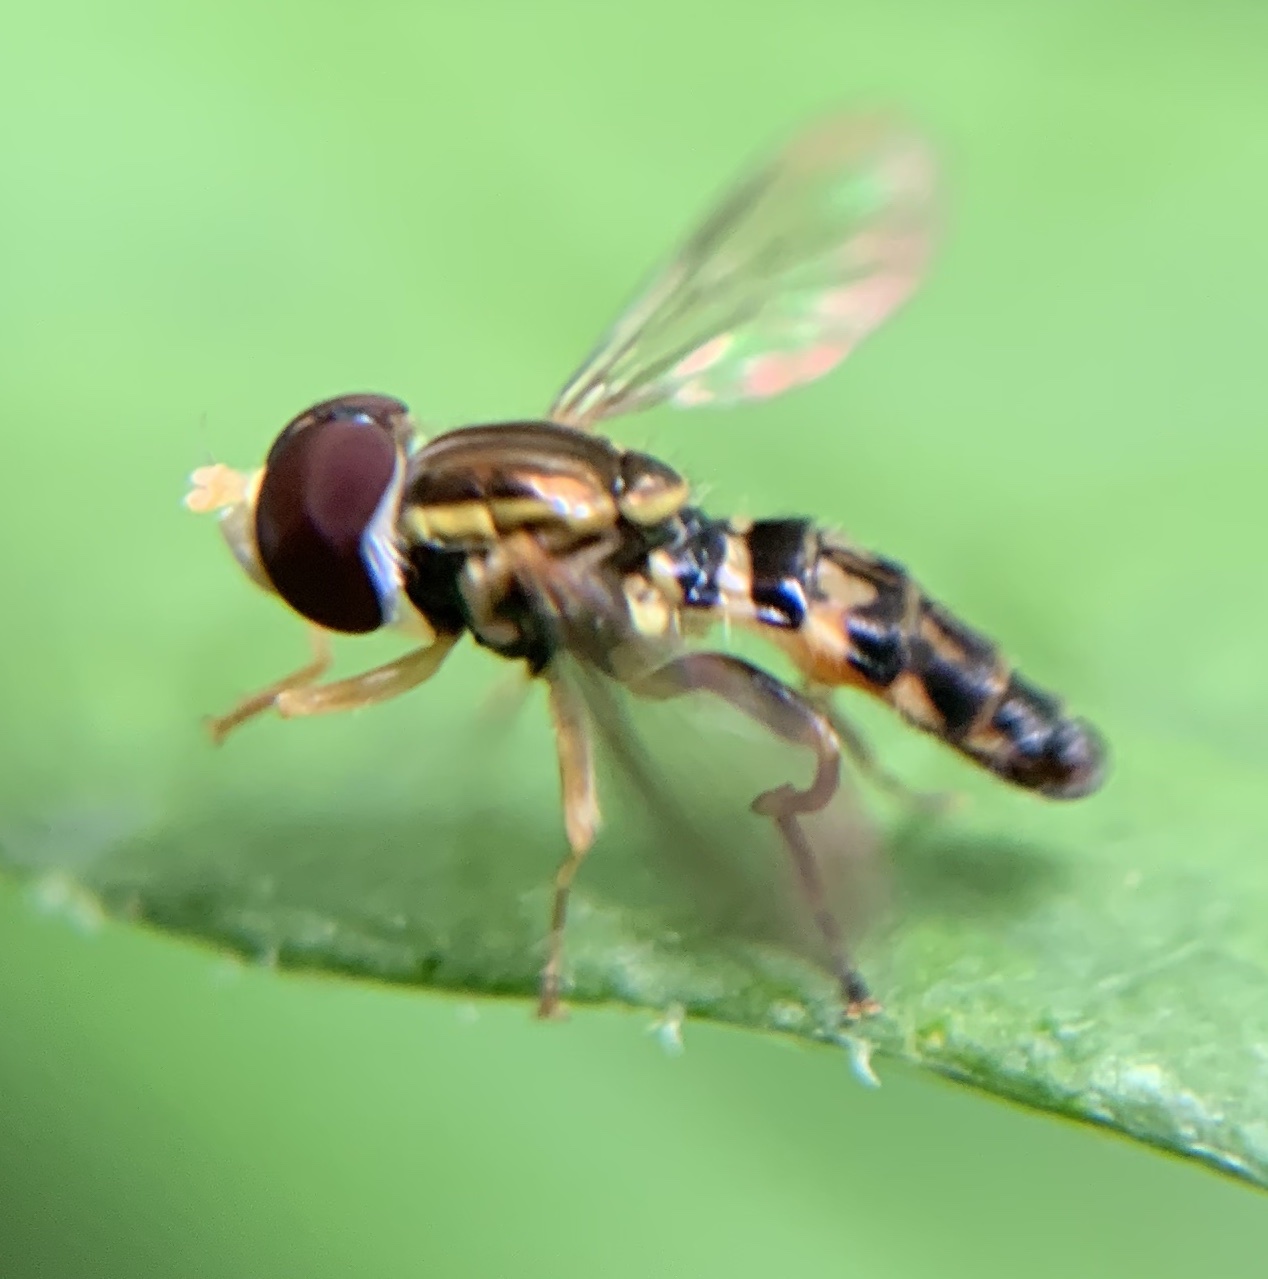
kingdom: Animalia
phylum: Arthropoda
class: Insecta
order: Diptera
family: Syrphidae
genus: Toxomerus
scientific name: Toxomerus geminatus
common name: Eastern calligrapher
